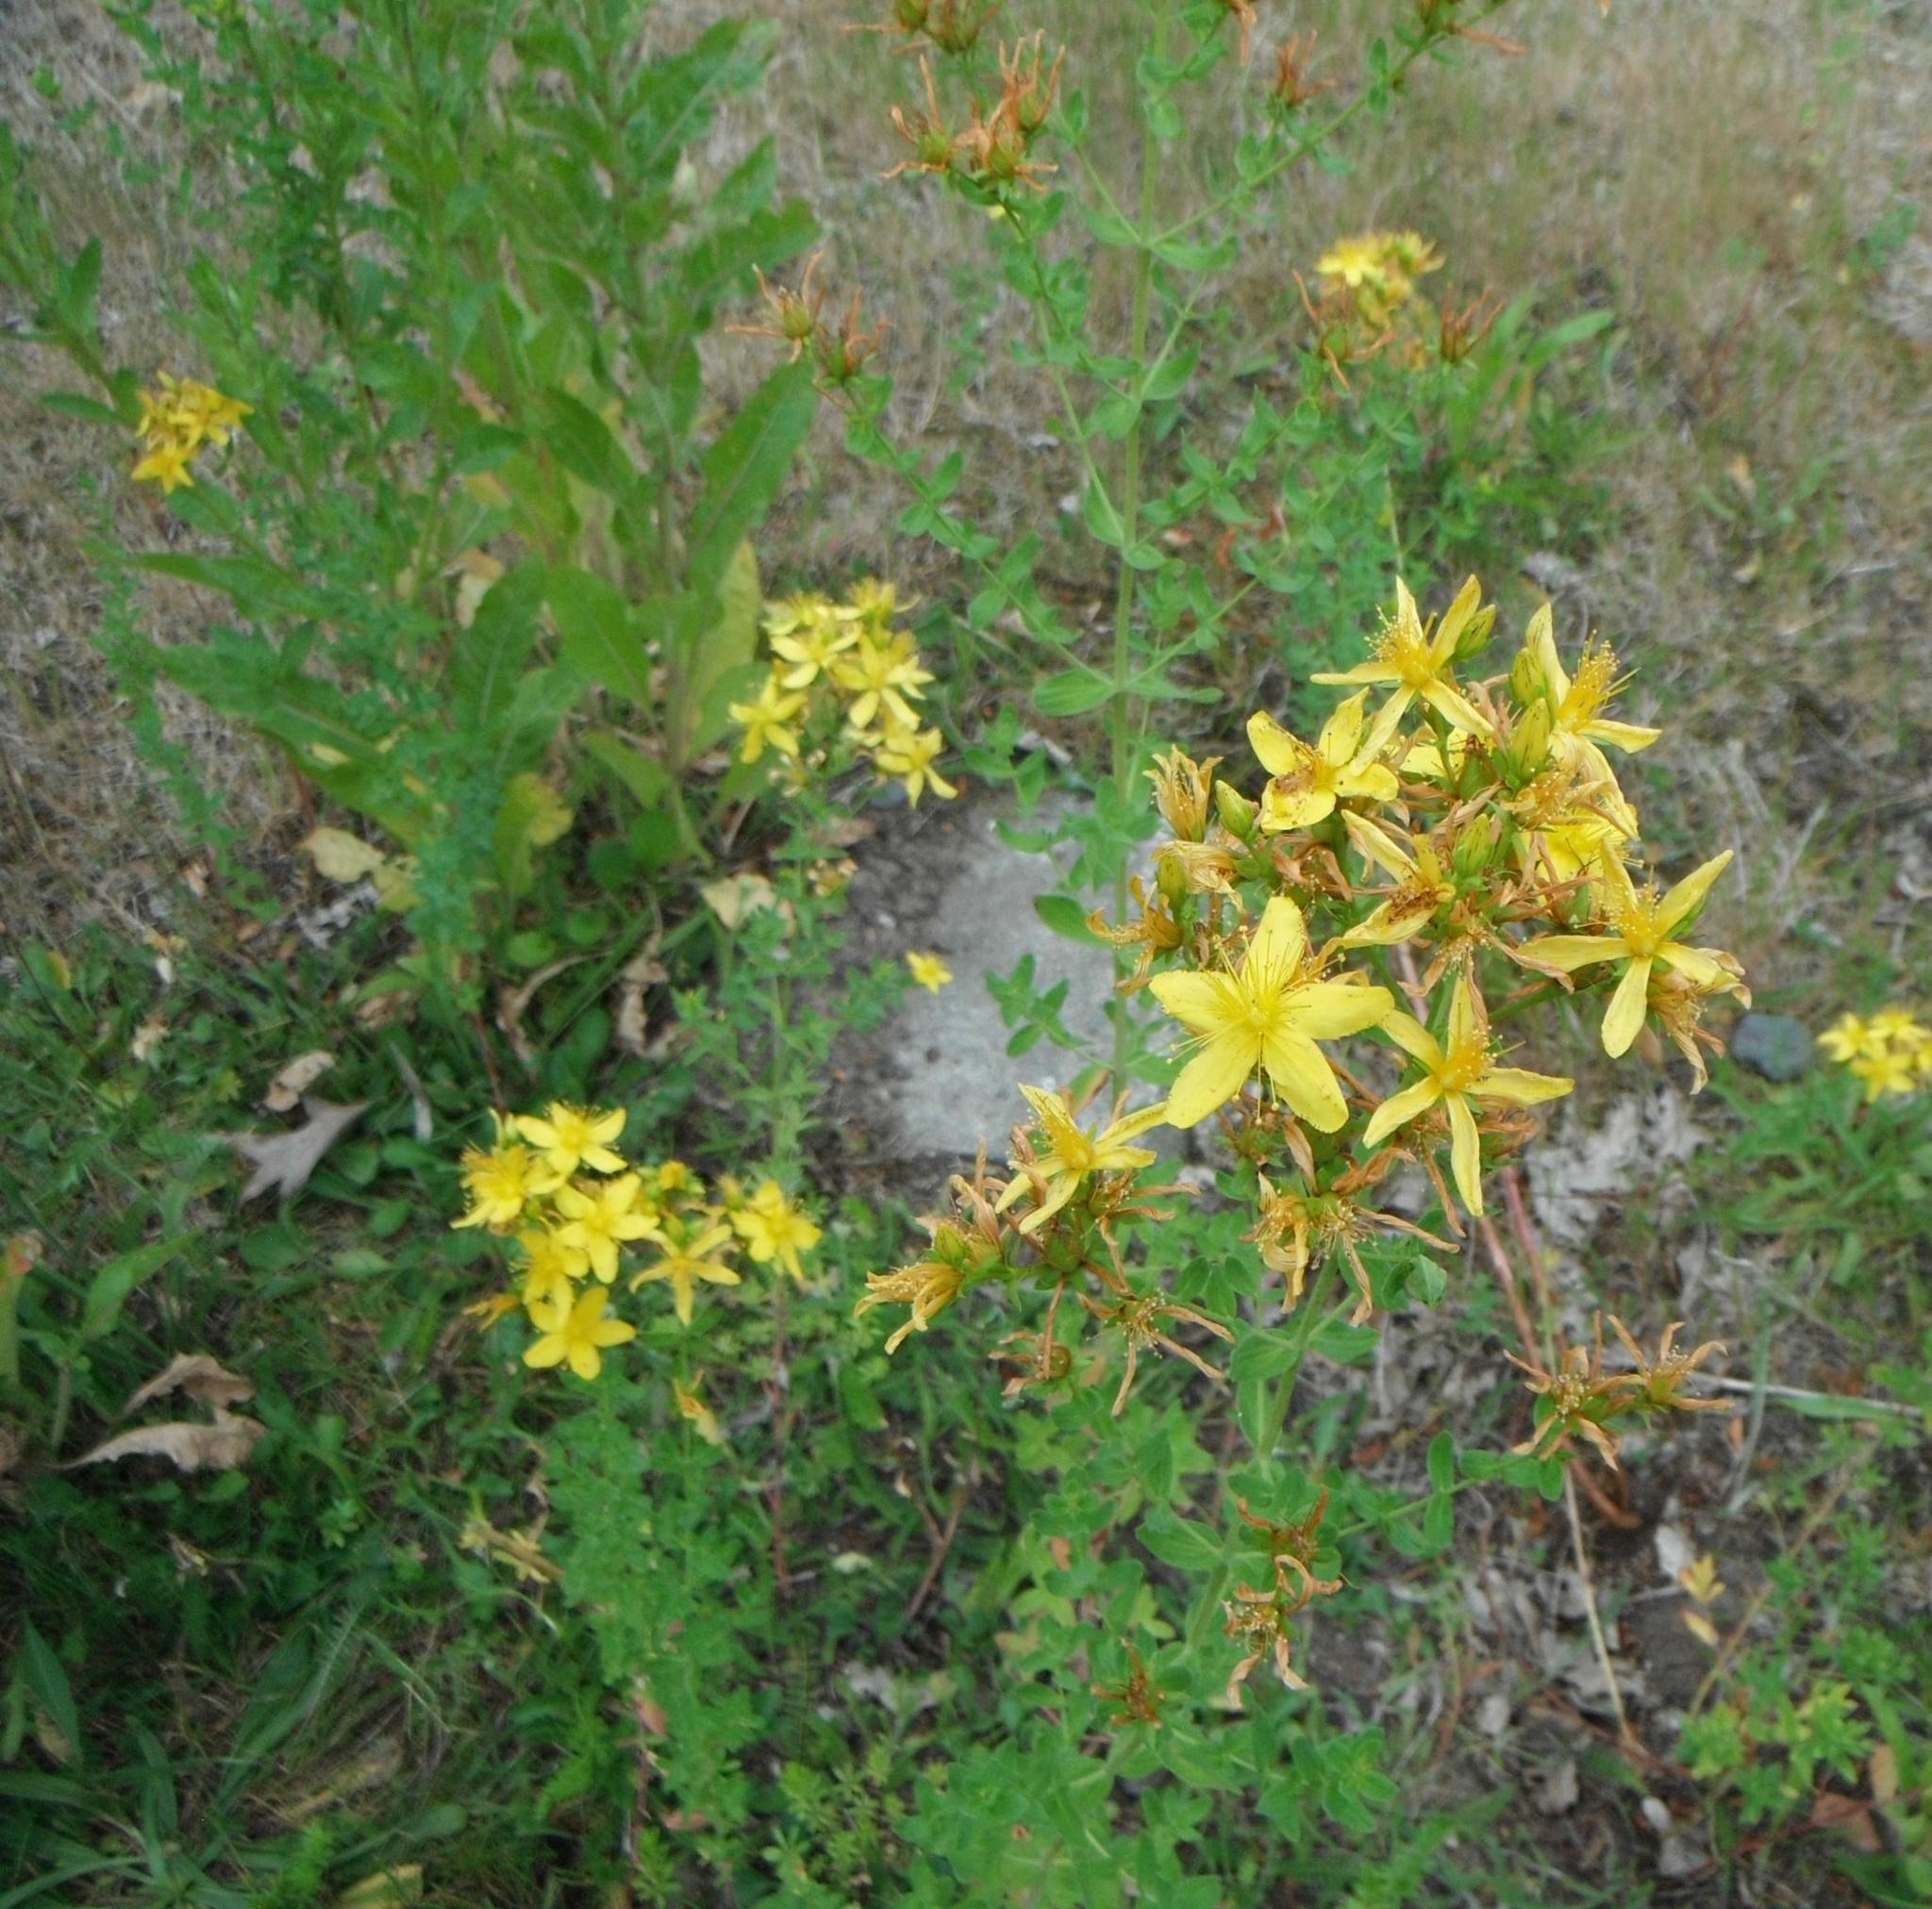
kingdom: Plantae
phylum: Tracheophyta
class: Magnoliopsida
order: Malpighiales
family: Hypericaceae
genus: Hypericum
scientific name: Hypericum perforatum
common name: Common st. johnswort
